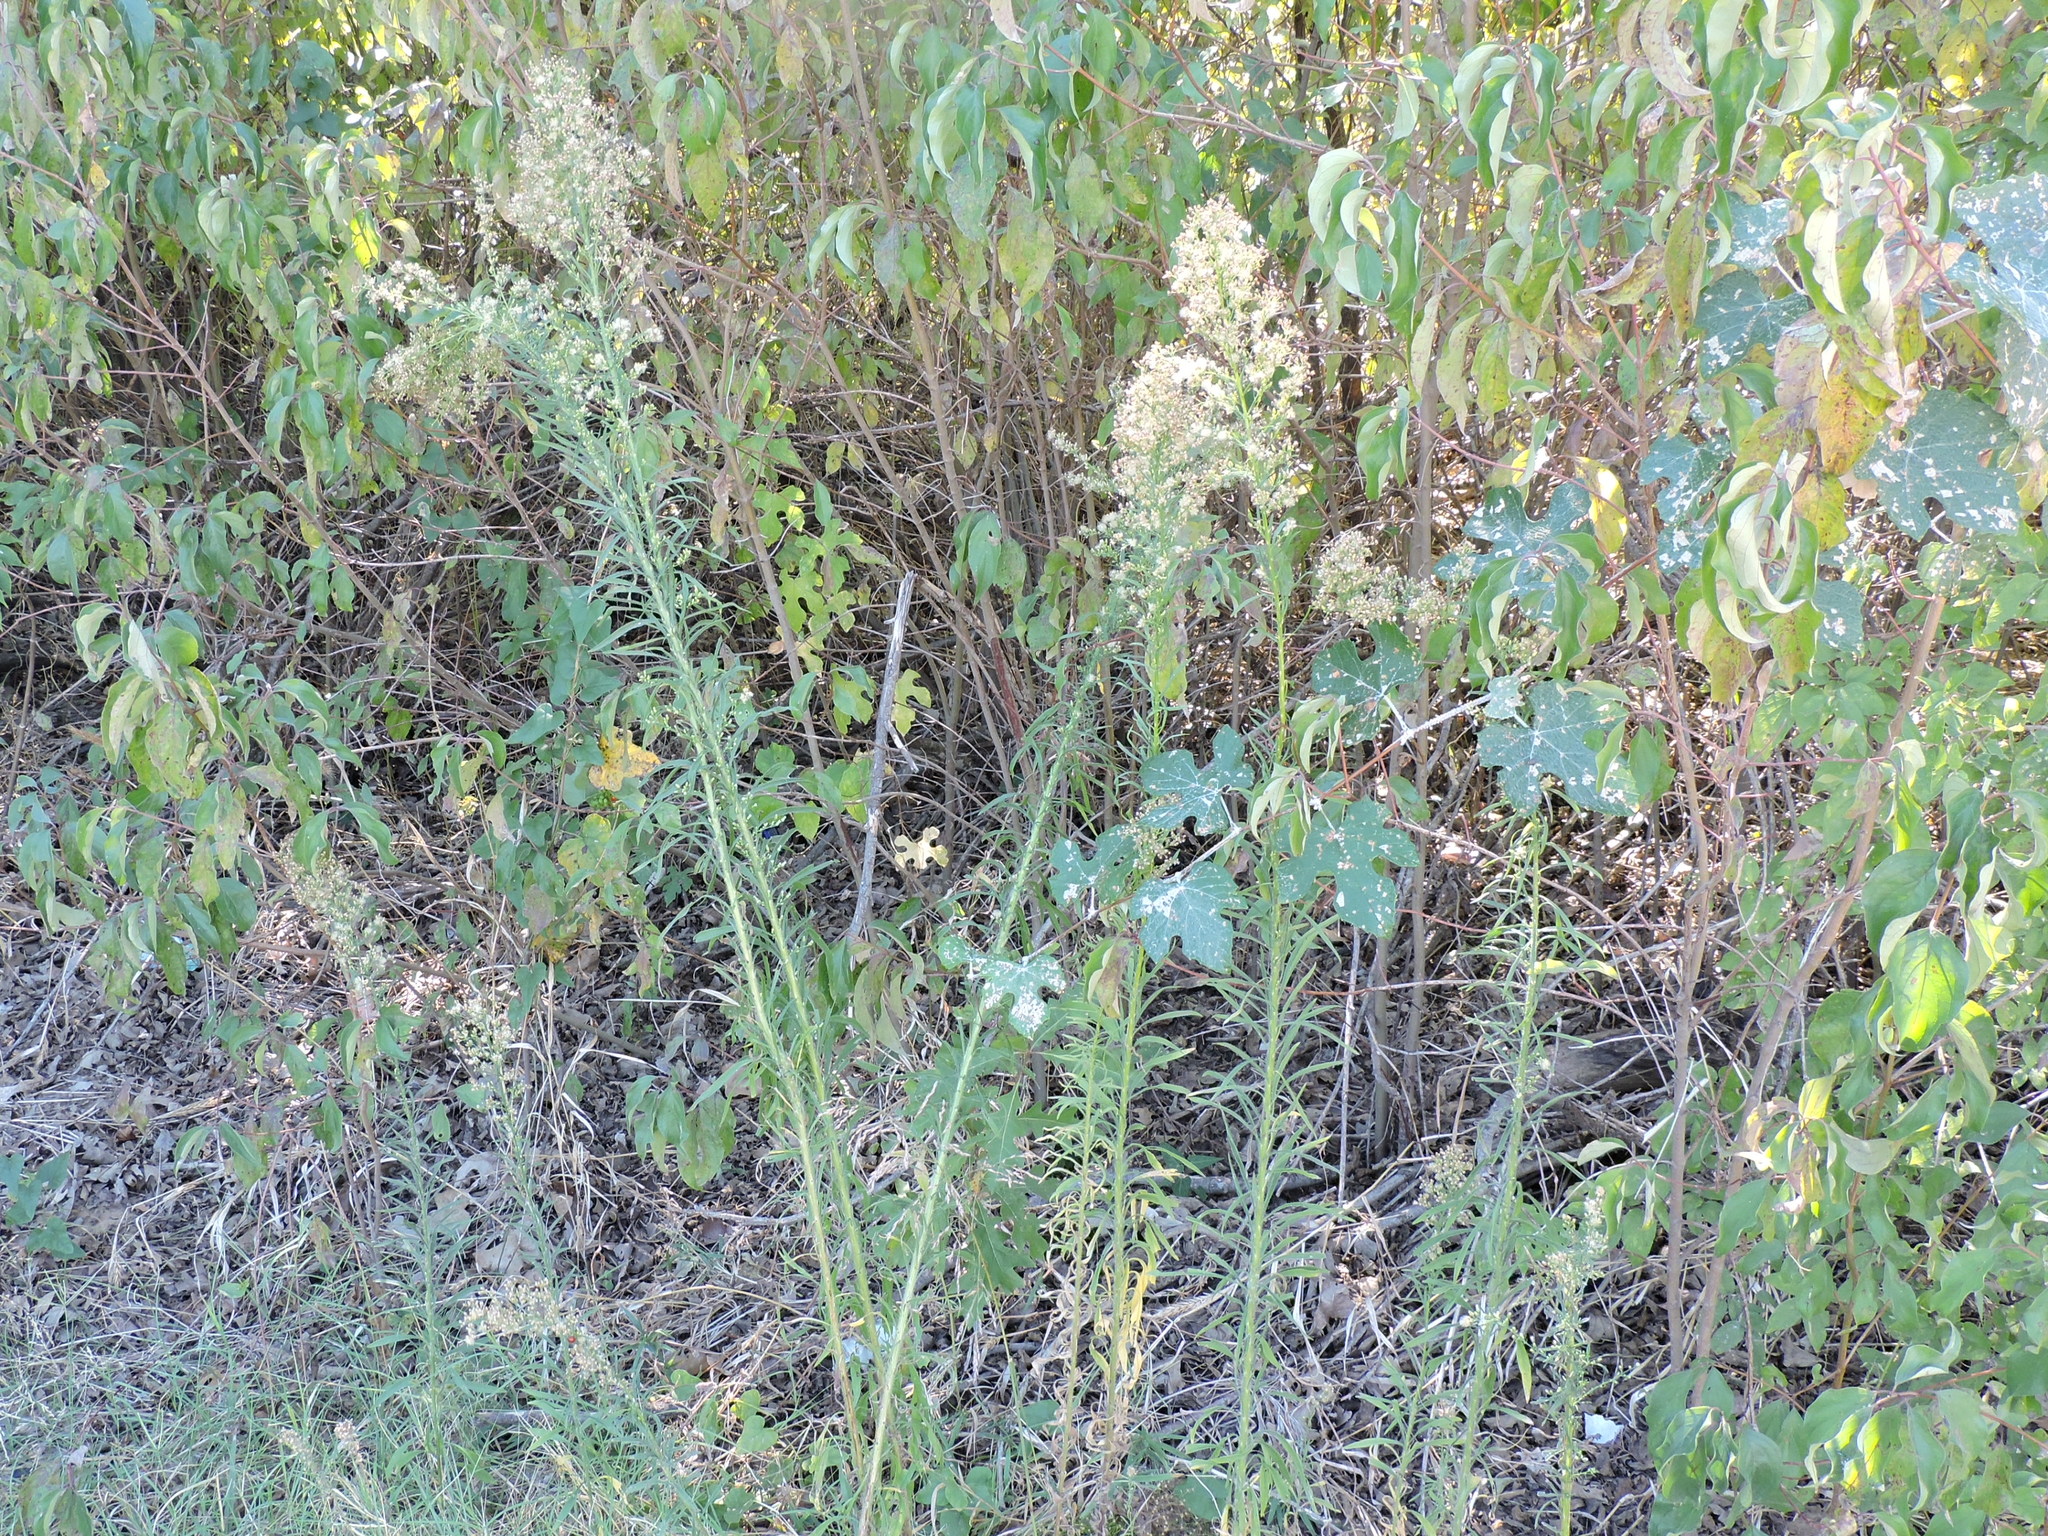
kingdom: Plantae
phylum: Tracheophyta
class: Magnoliopsida
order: Asterales
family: Asteraceae
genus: Erigeron
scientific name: Erigeron canadensis
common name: Canadian fleabane
